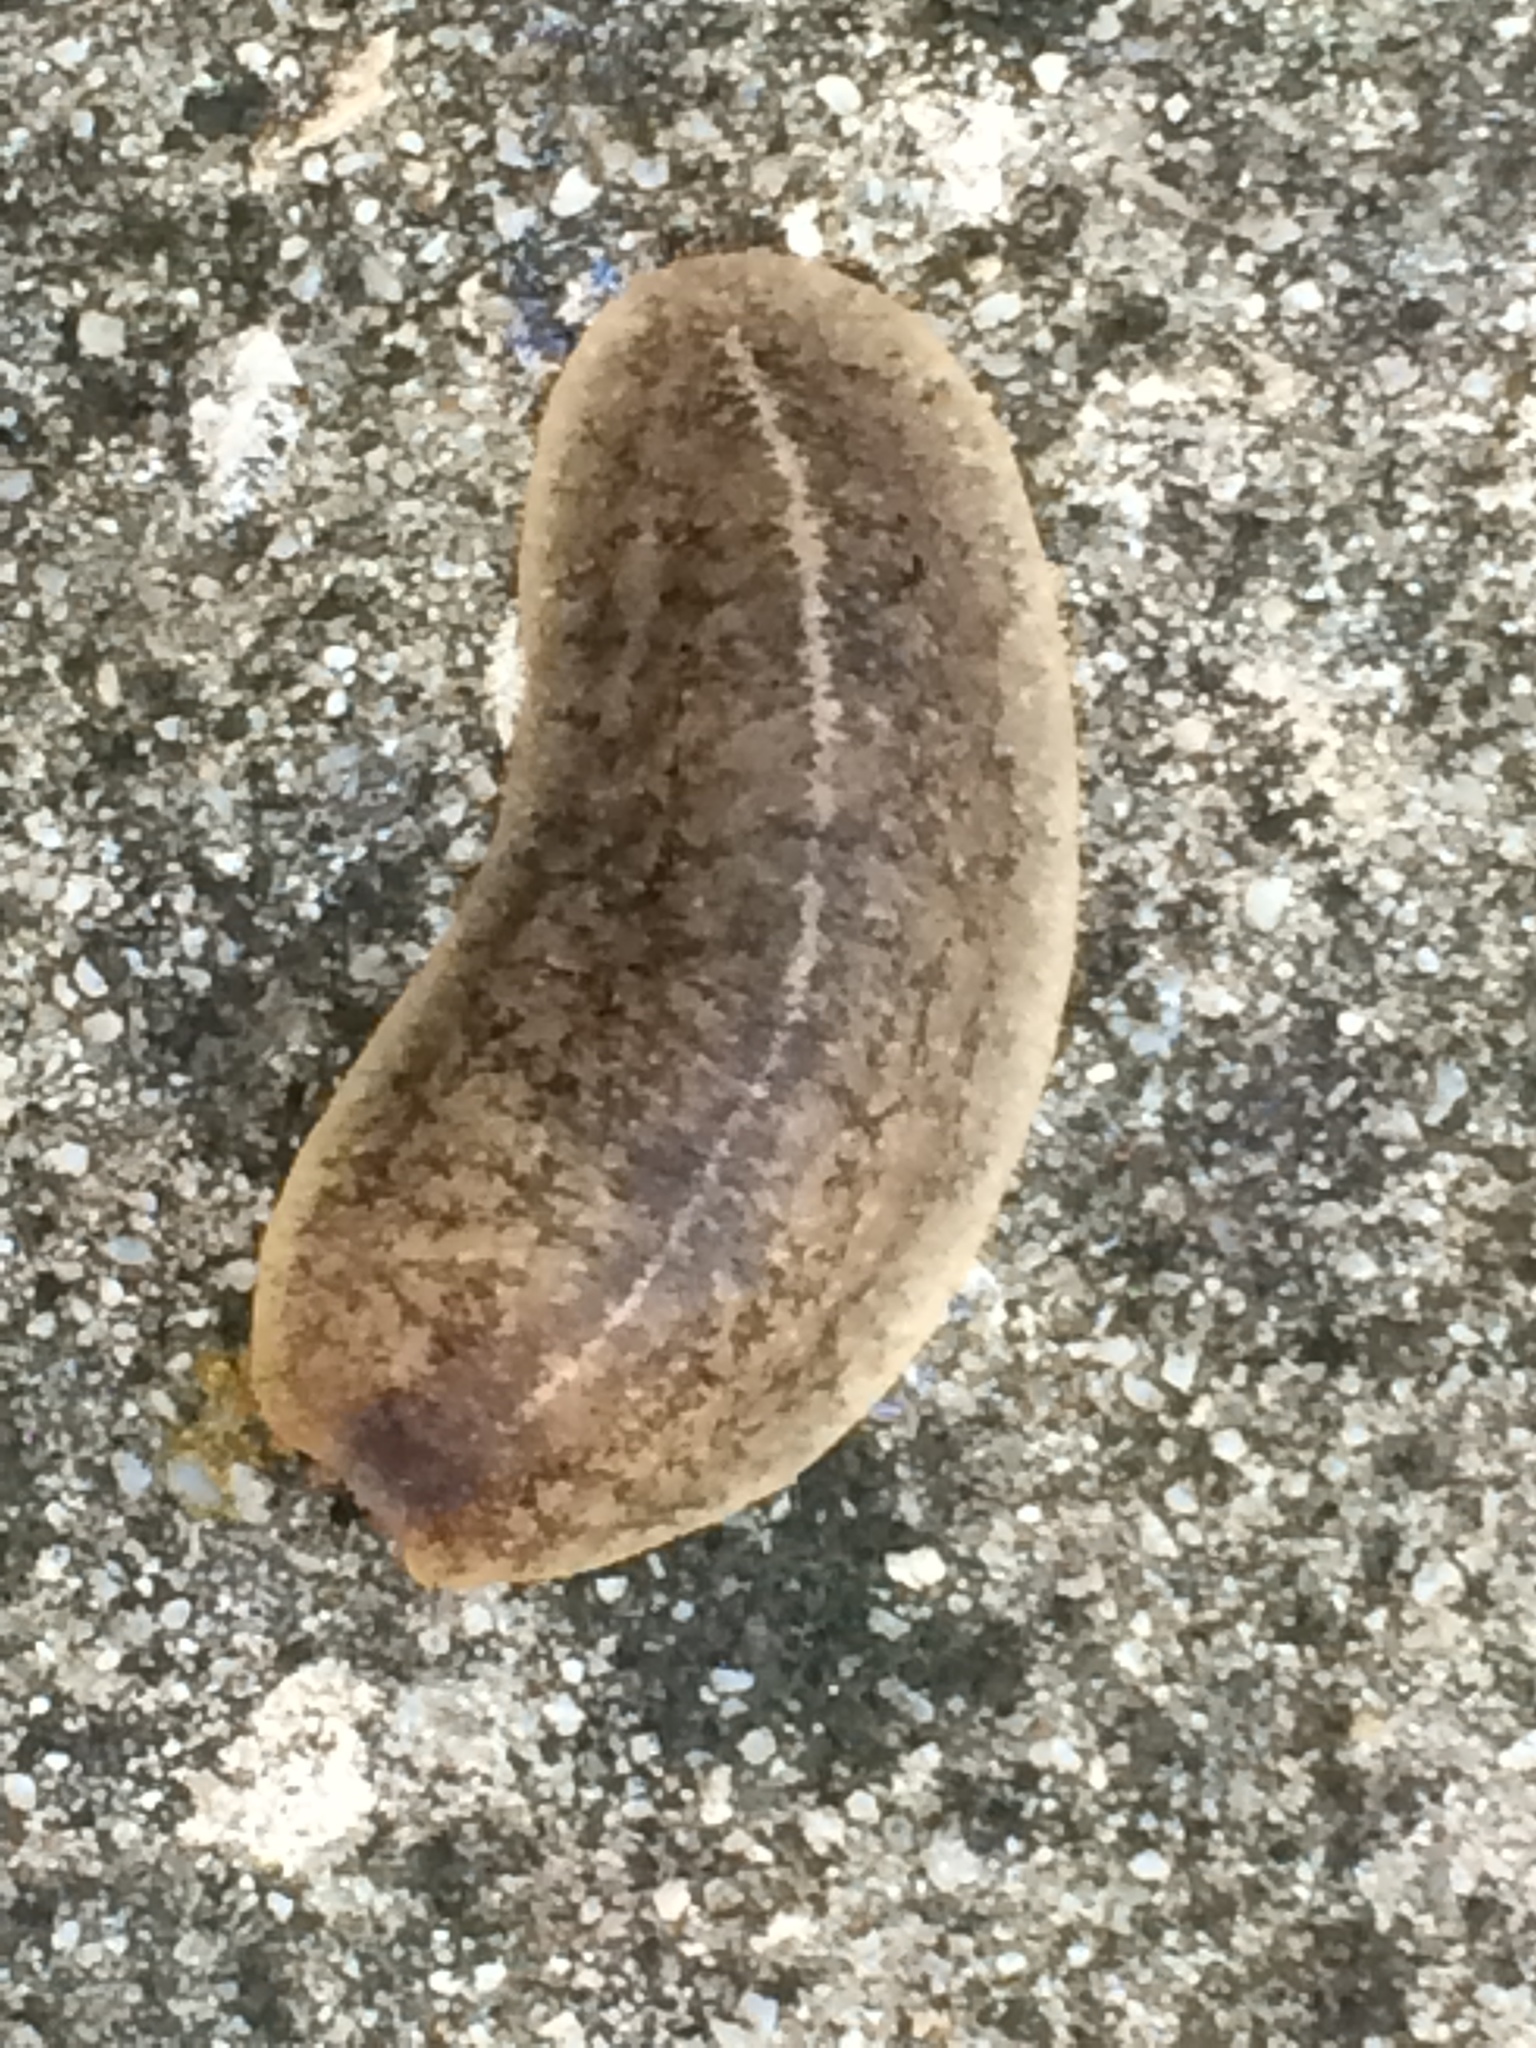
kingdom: Animalia
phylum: Mollusca
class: Gastropoda
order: Systellommatophora
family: Veronicellidae
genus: Leidyula
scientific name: Leidyula floridana
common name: Florida leatherleaf
